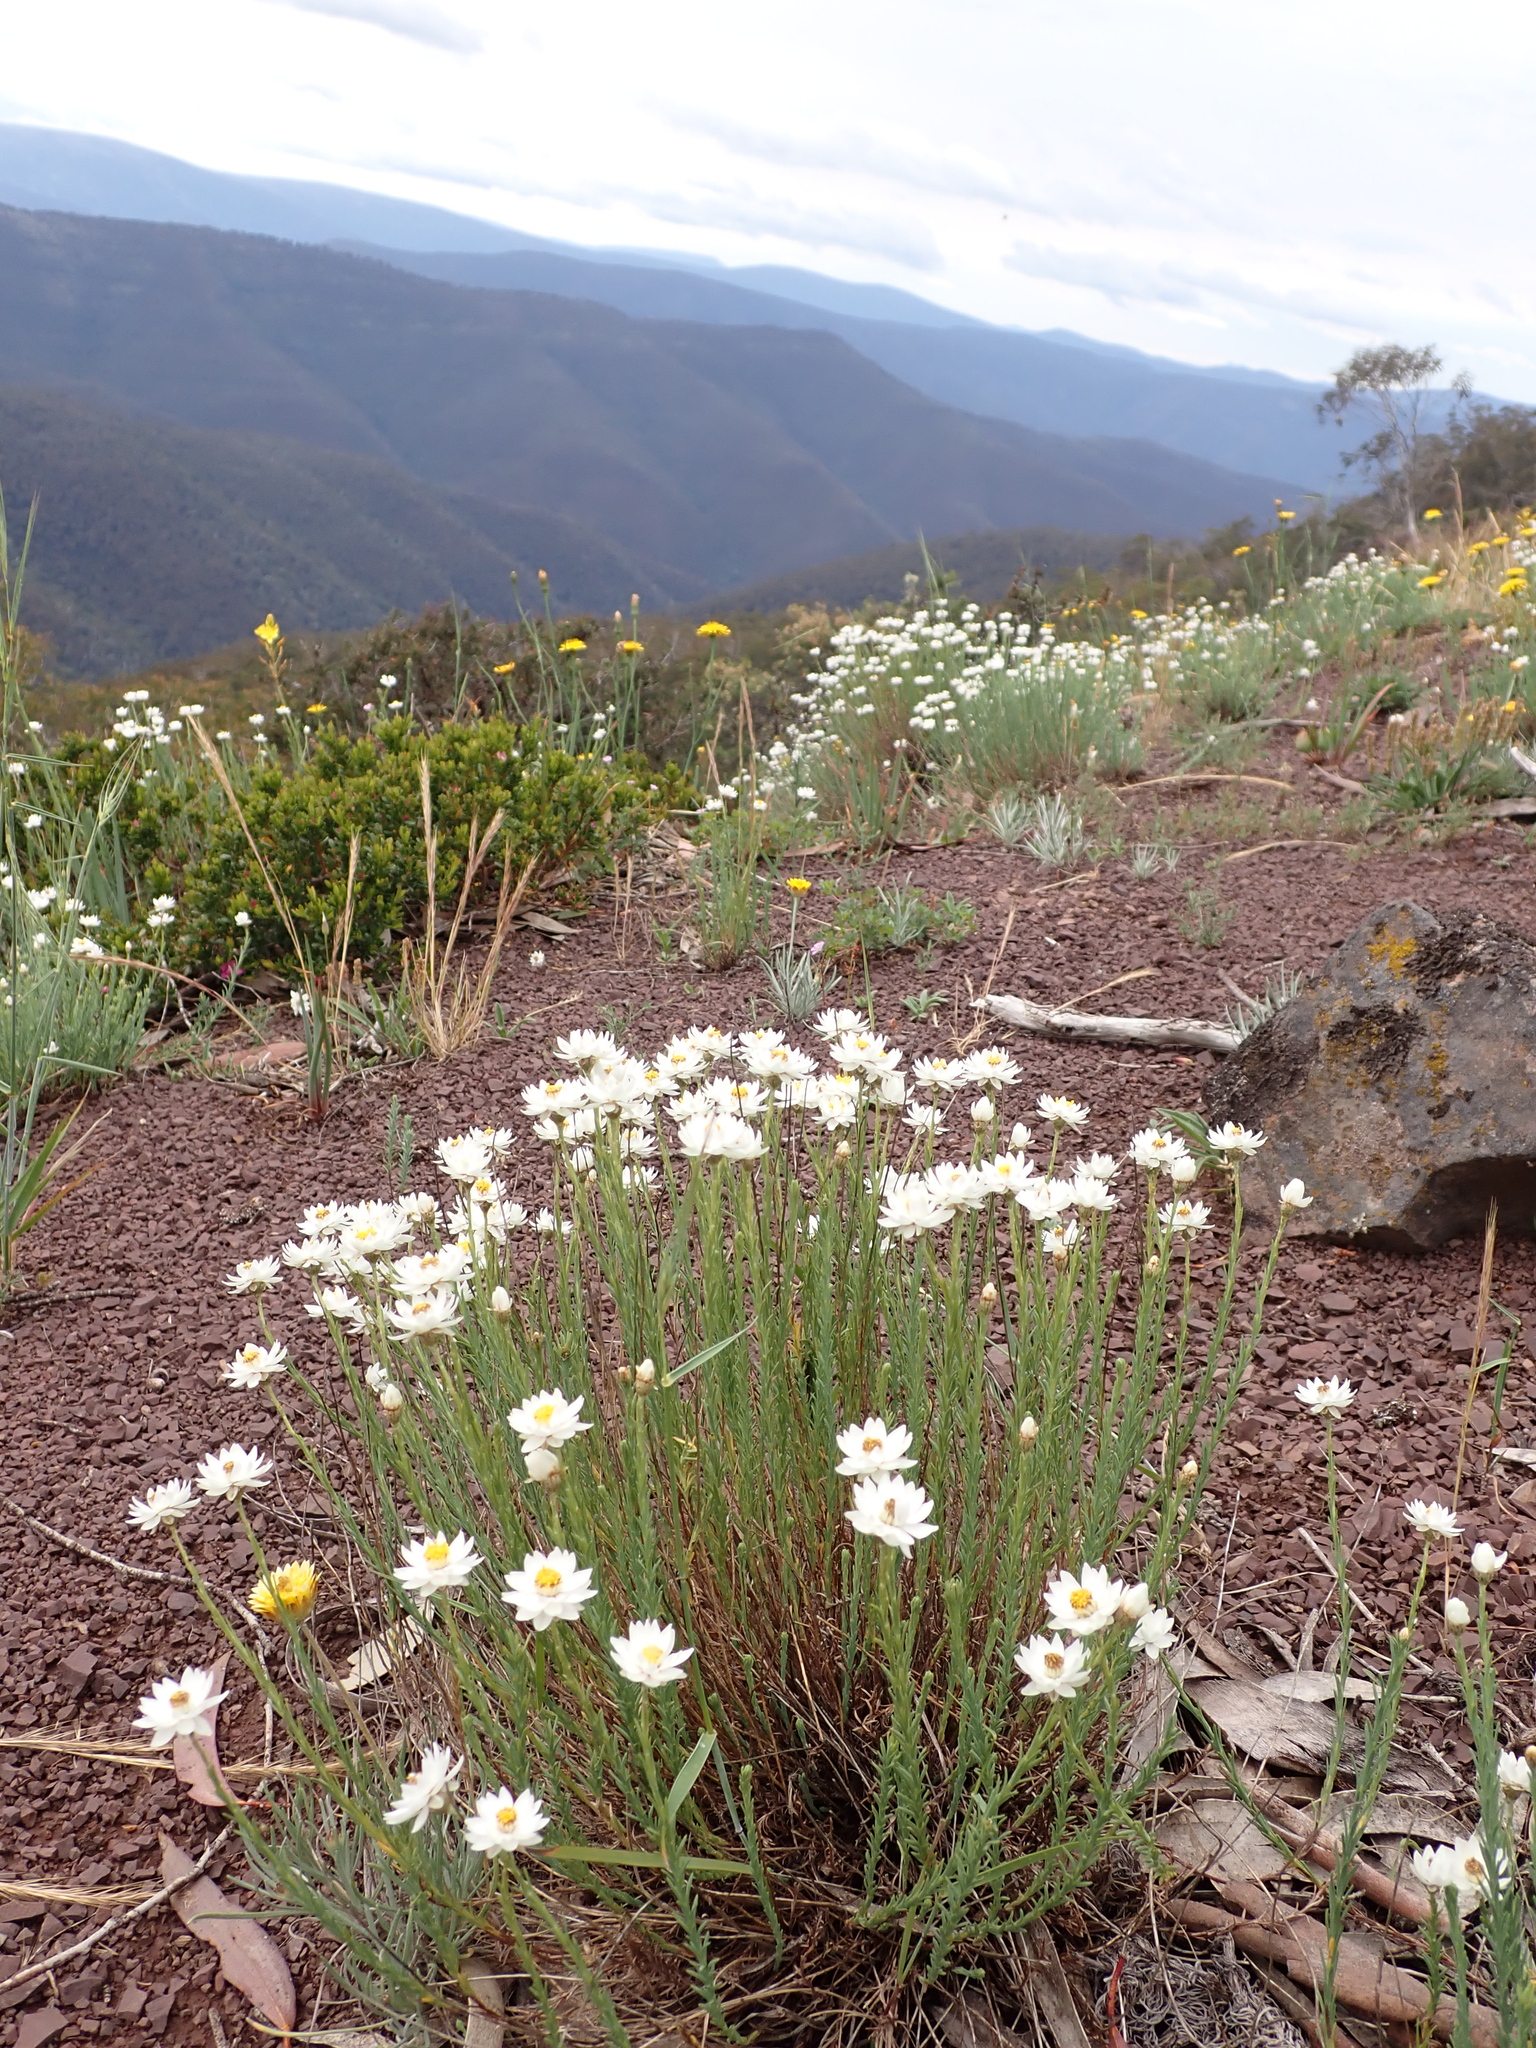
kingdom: Plantae
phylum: Tracheophyta
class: Magnoliopsida
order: Asterales
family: Asteraceae
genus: Rhodanthe
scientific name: Rhodanthe anthemoides
